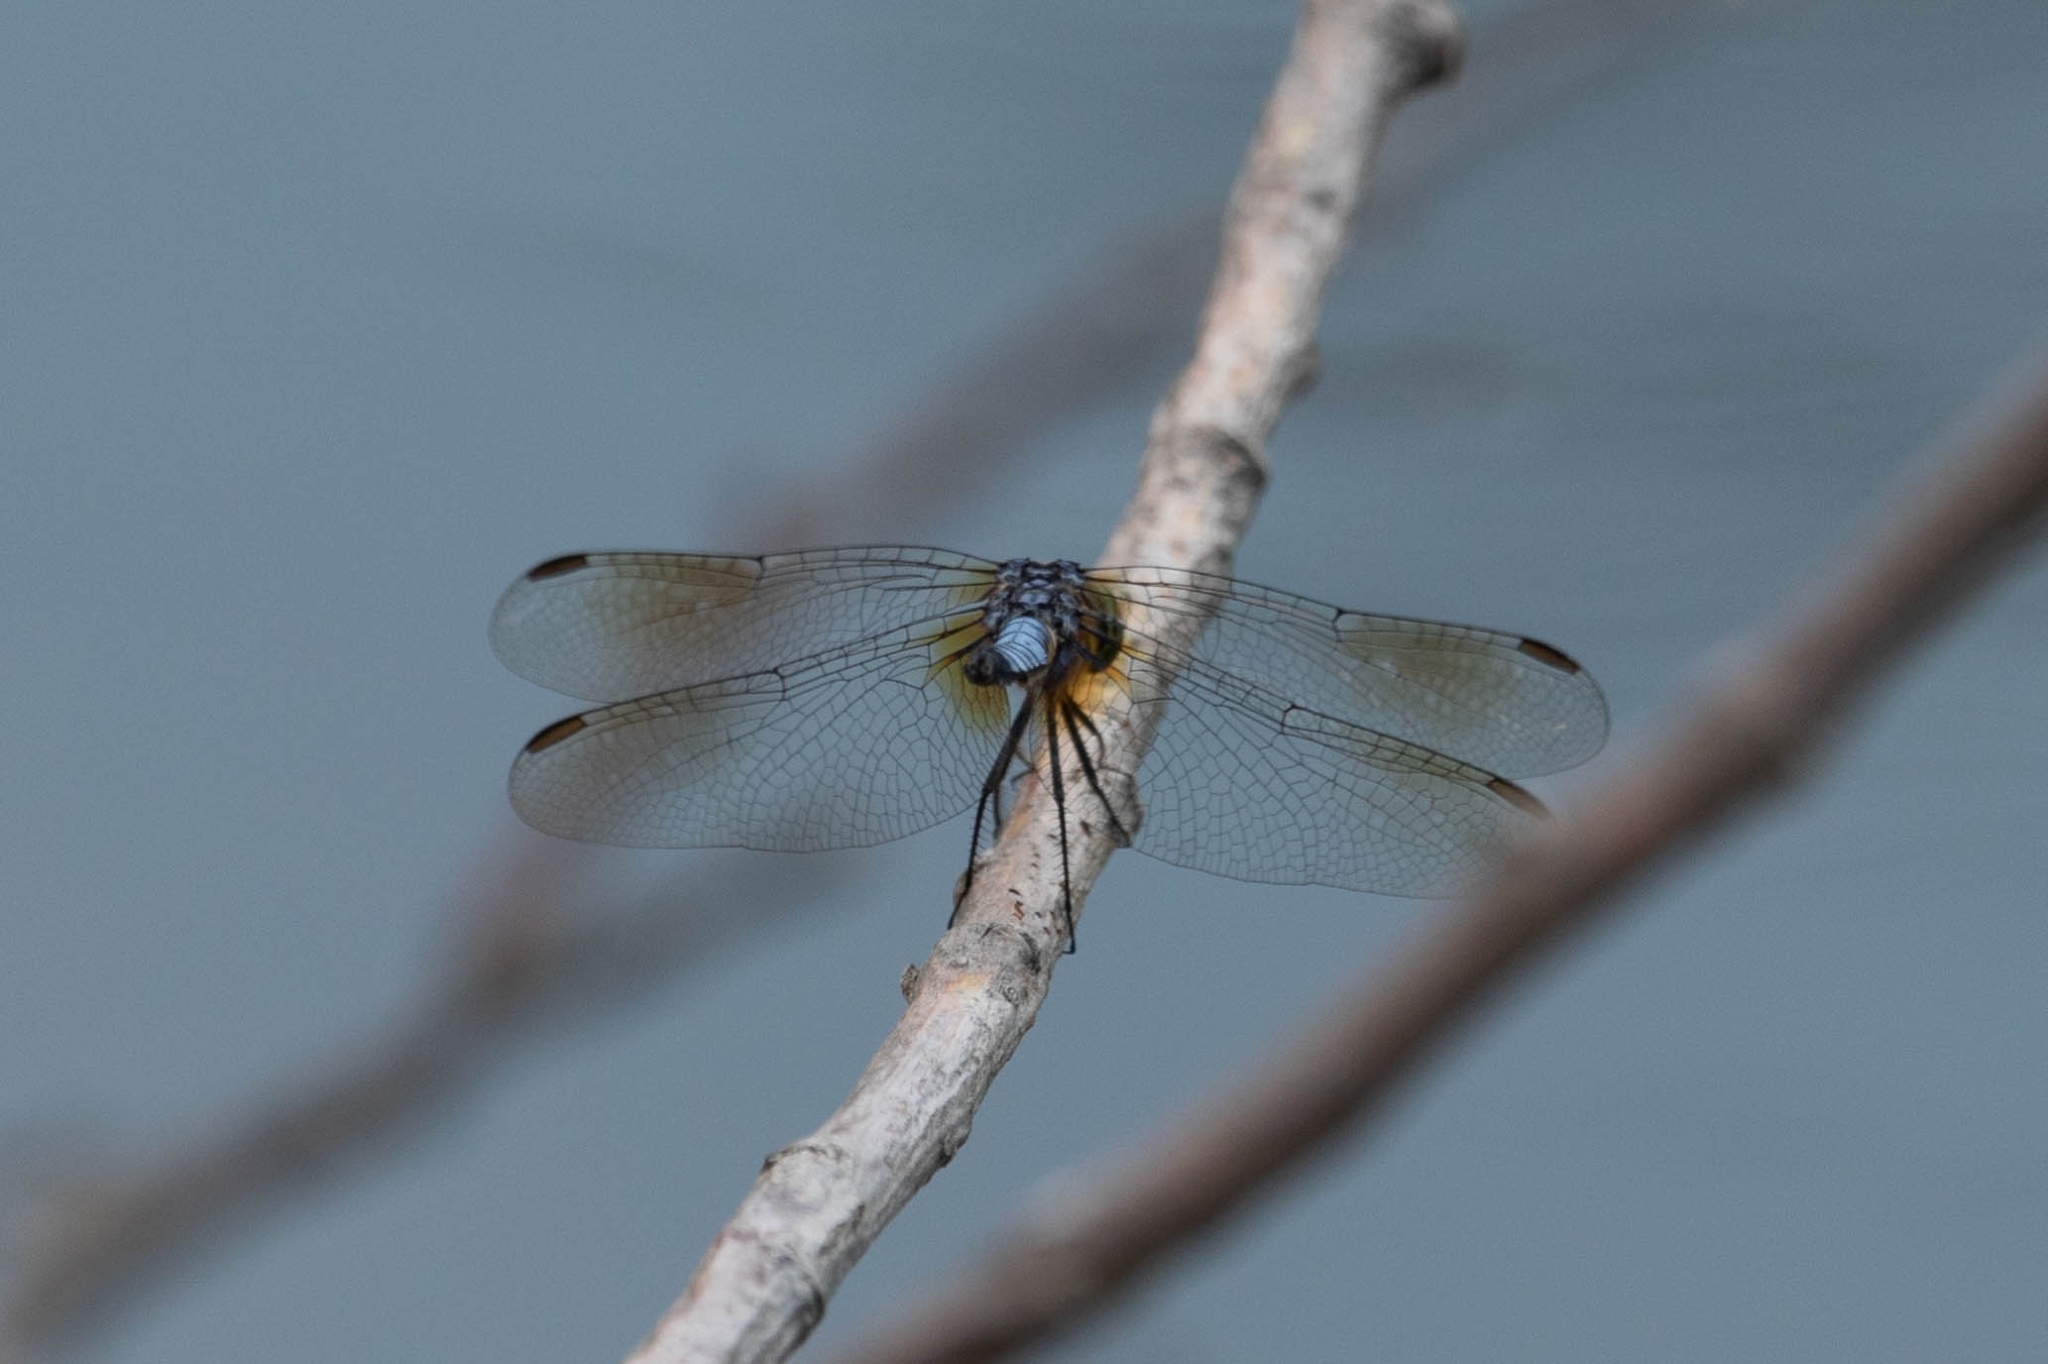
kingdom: Animalia
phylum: Arthropoda
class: Insecta
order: Odonata
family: Libellulidae
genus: Pachydiplax
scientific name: Pachydiplax longipennis
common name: Blue dasher
